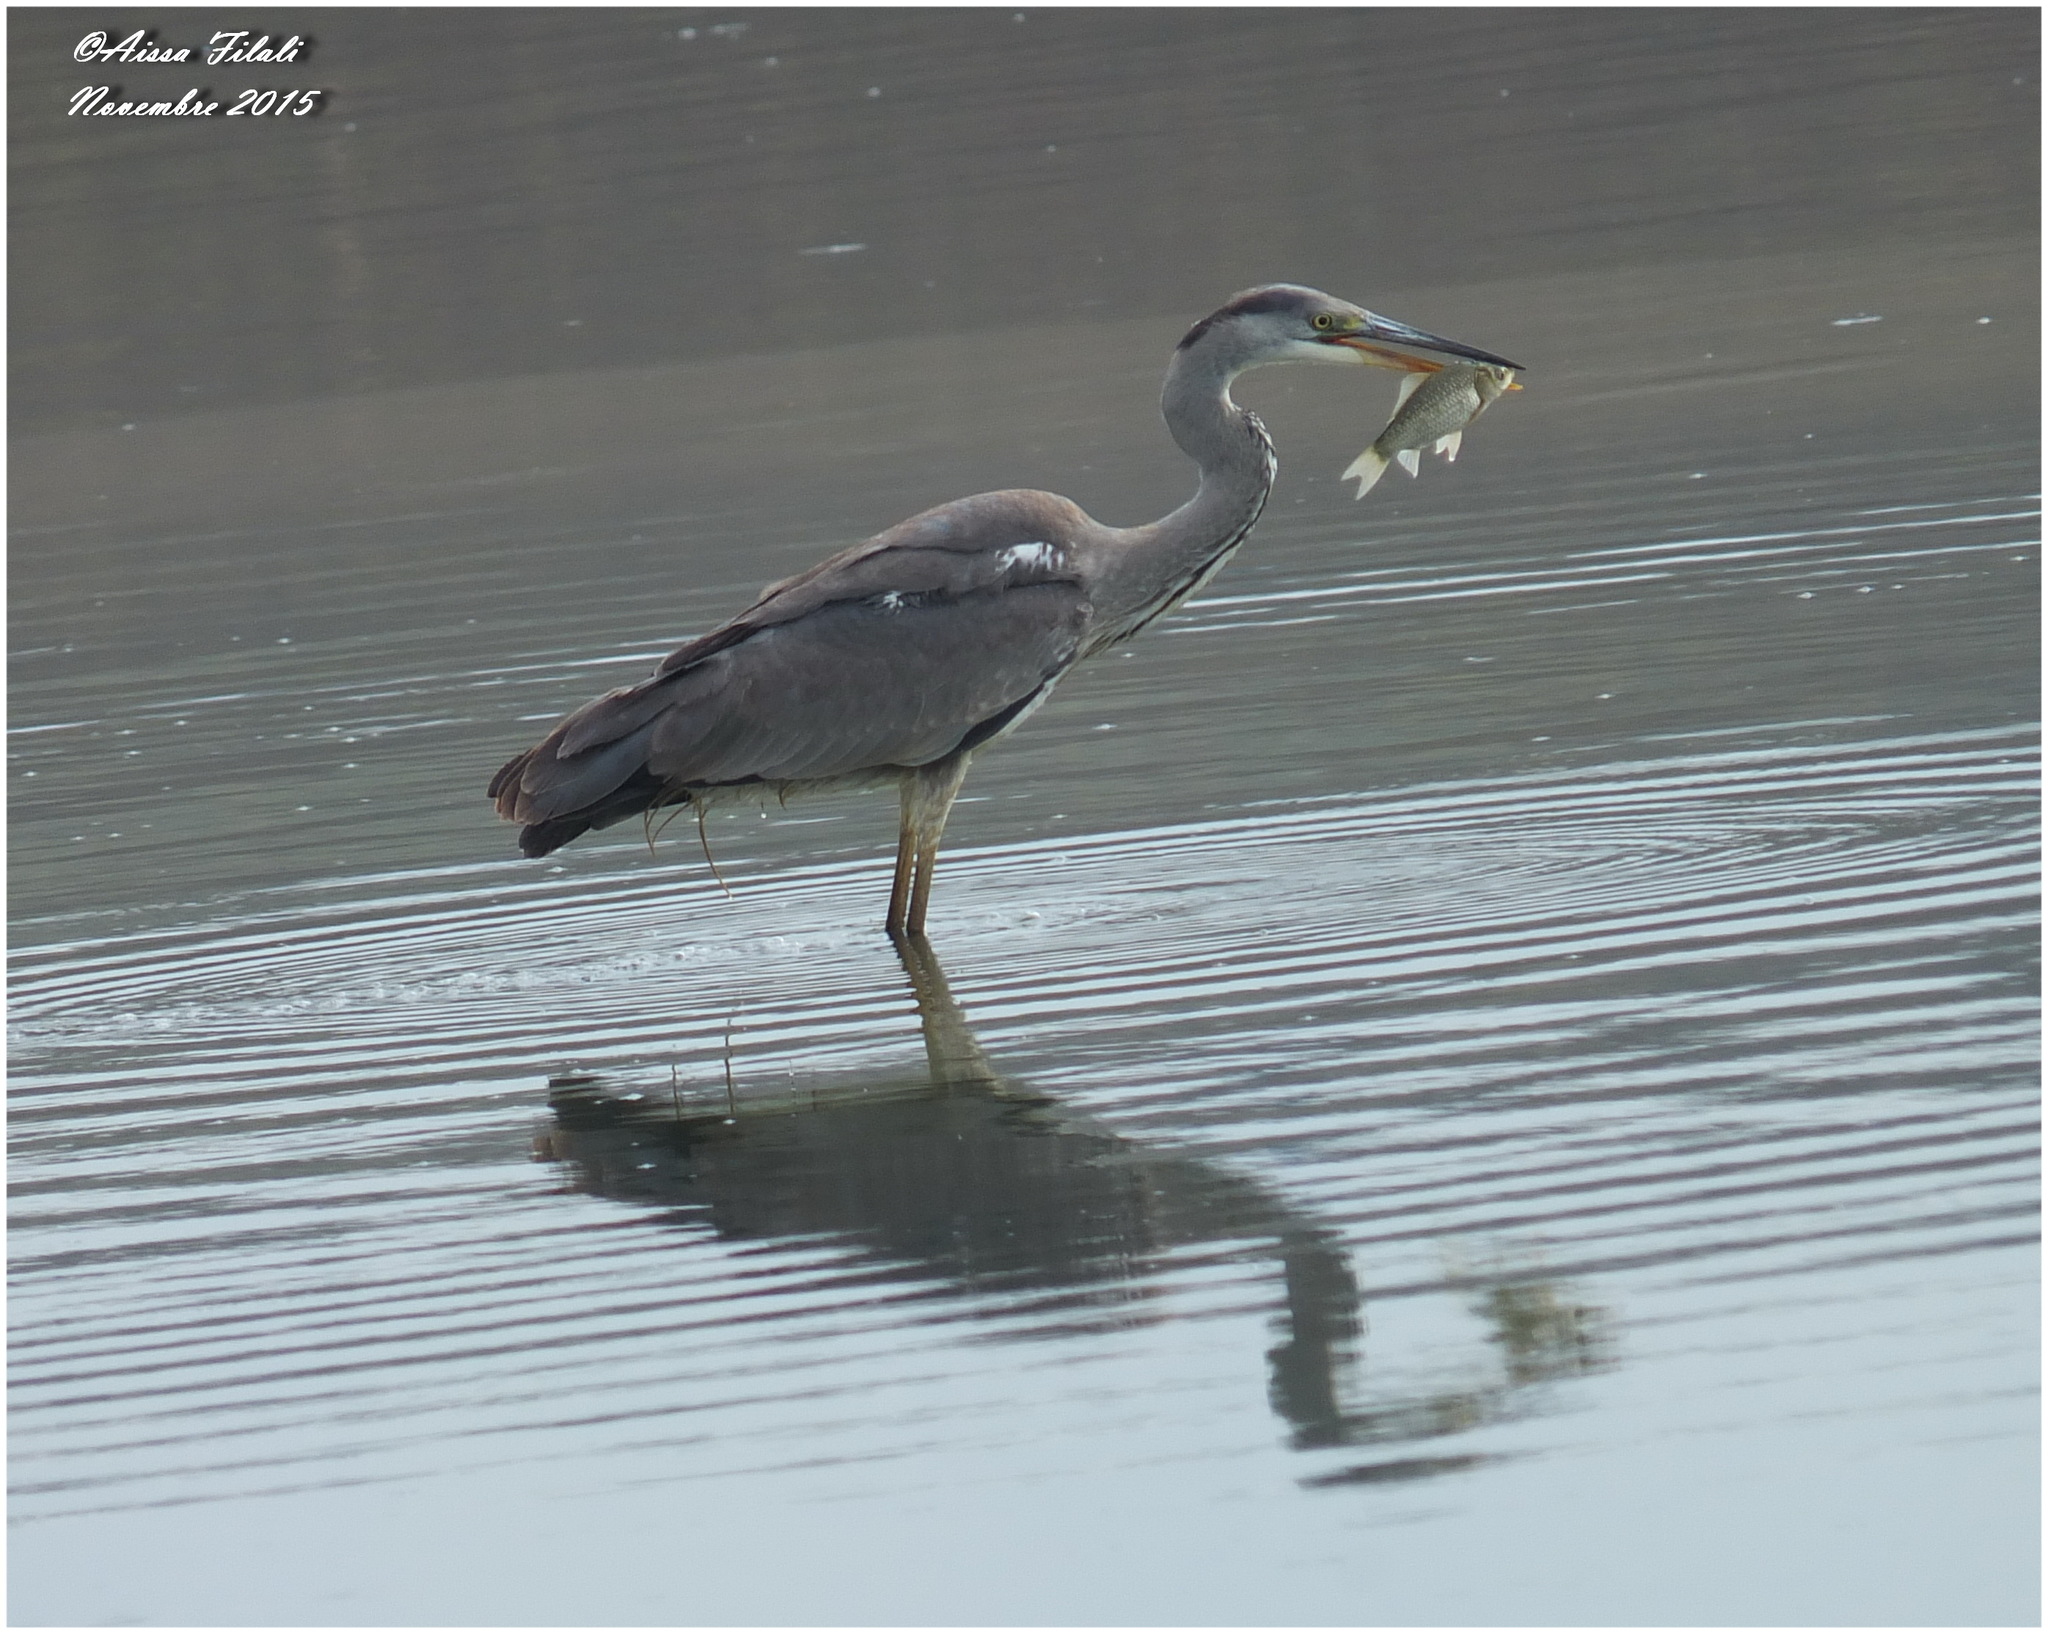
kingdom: Animalia
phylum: Chordata
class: Aves
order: Pelecaniformes
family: Ardeidae
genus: Ardea
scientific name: Ardea cinerea
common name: Grey heron
